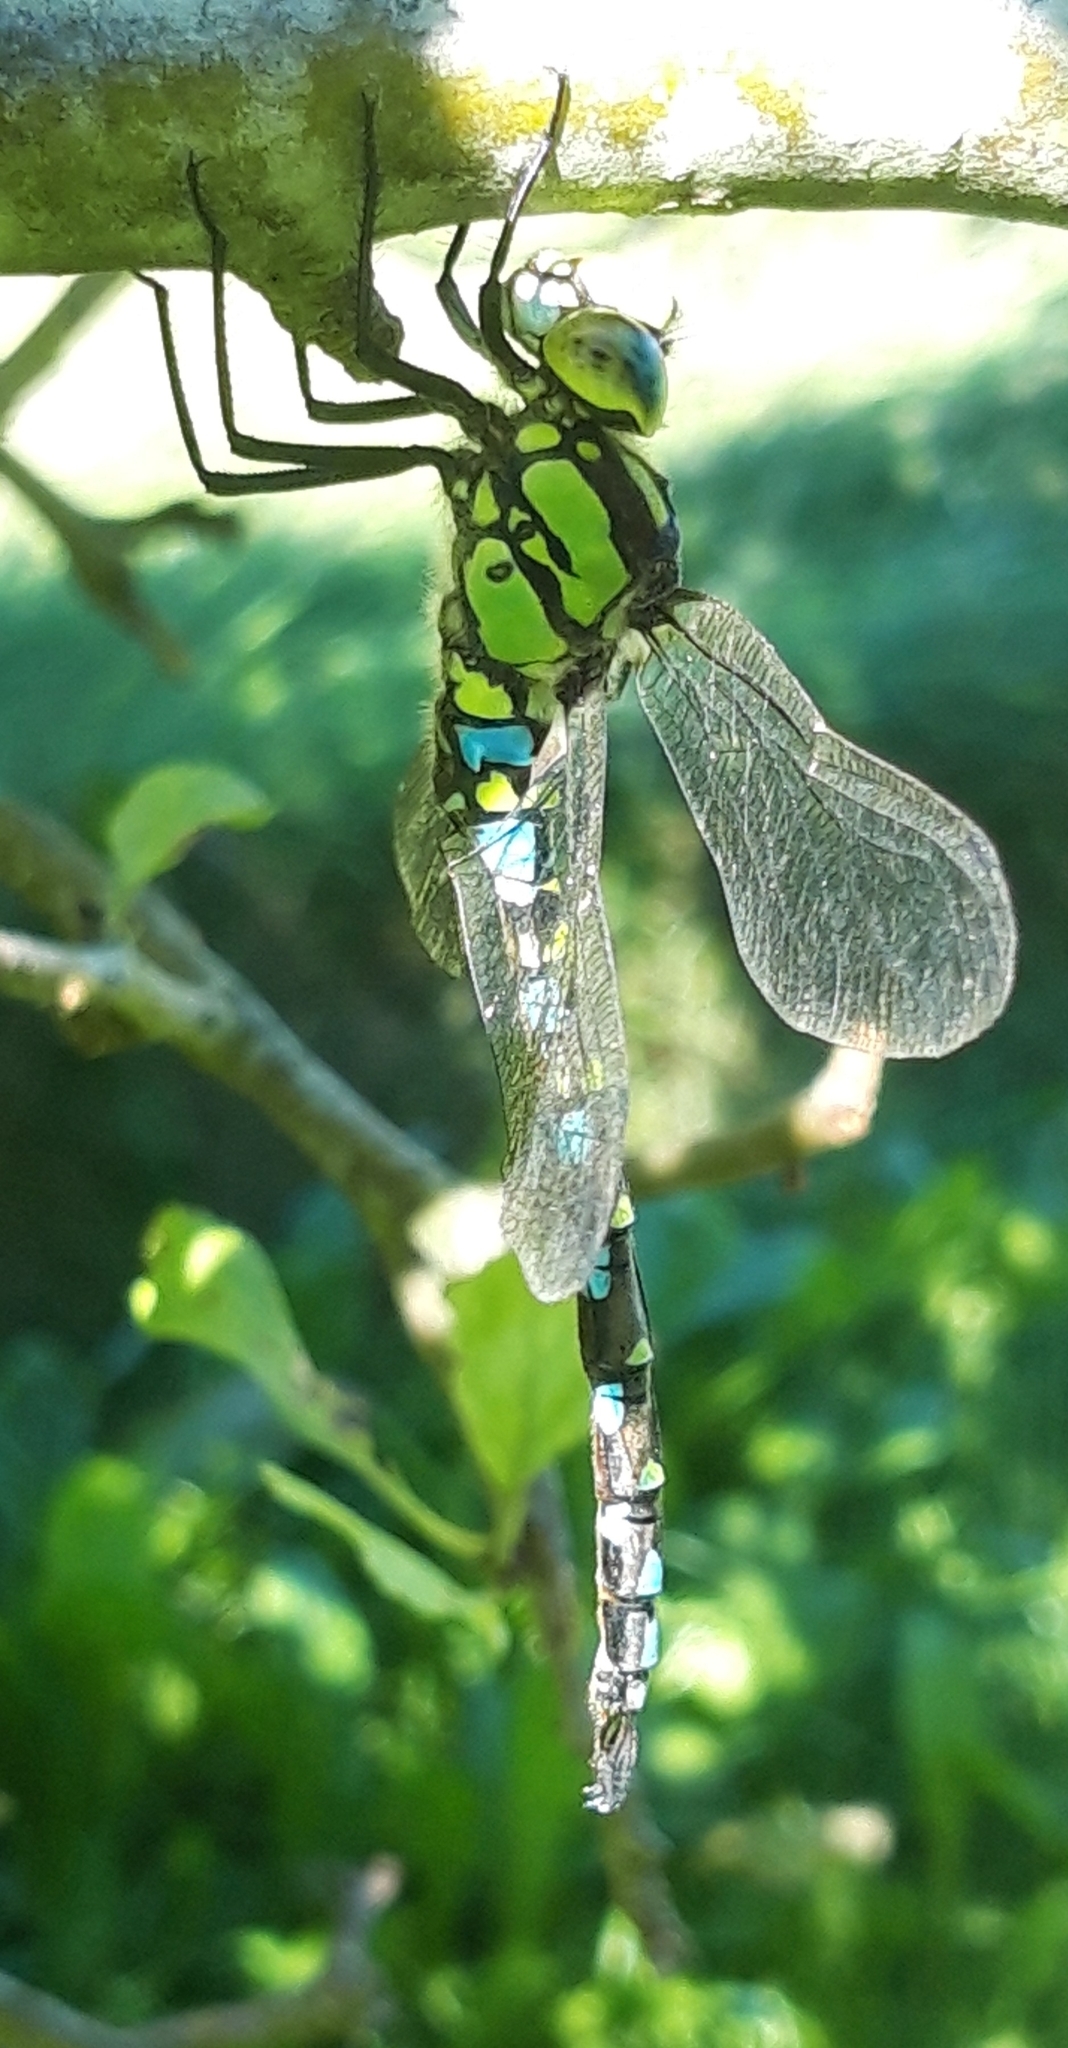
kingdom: Animalia
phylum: Arthropoda
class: Insecta
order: Odonata
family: Aeshnidae
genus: Aeshna
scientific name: Aeshna cyanea
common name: Southern hawker
